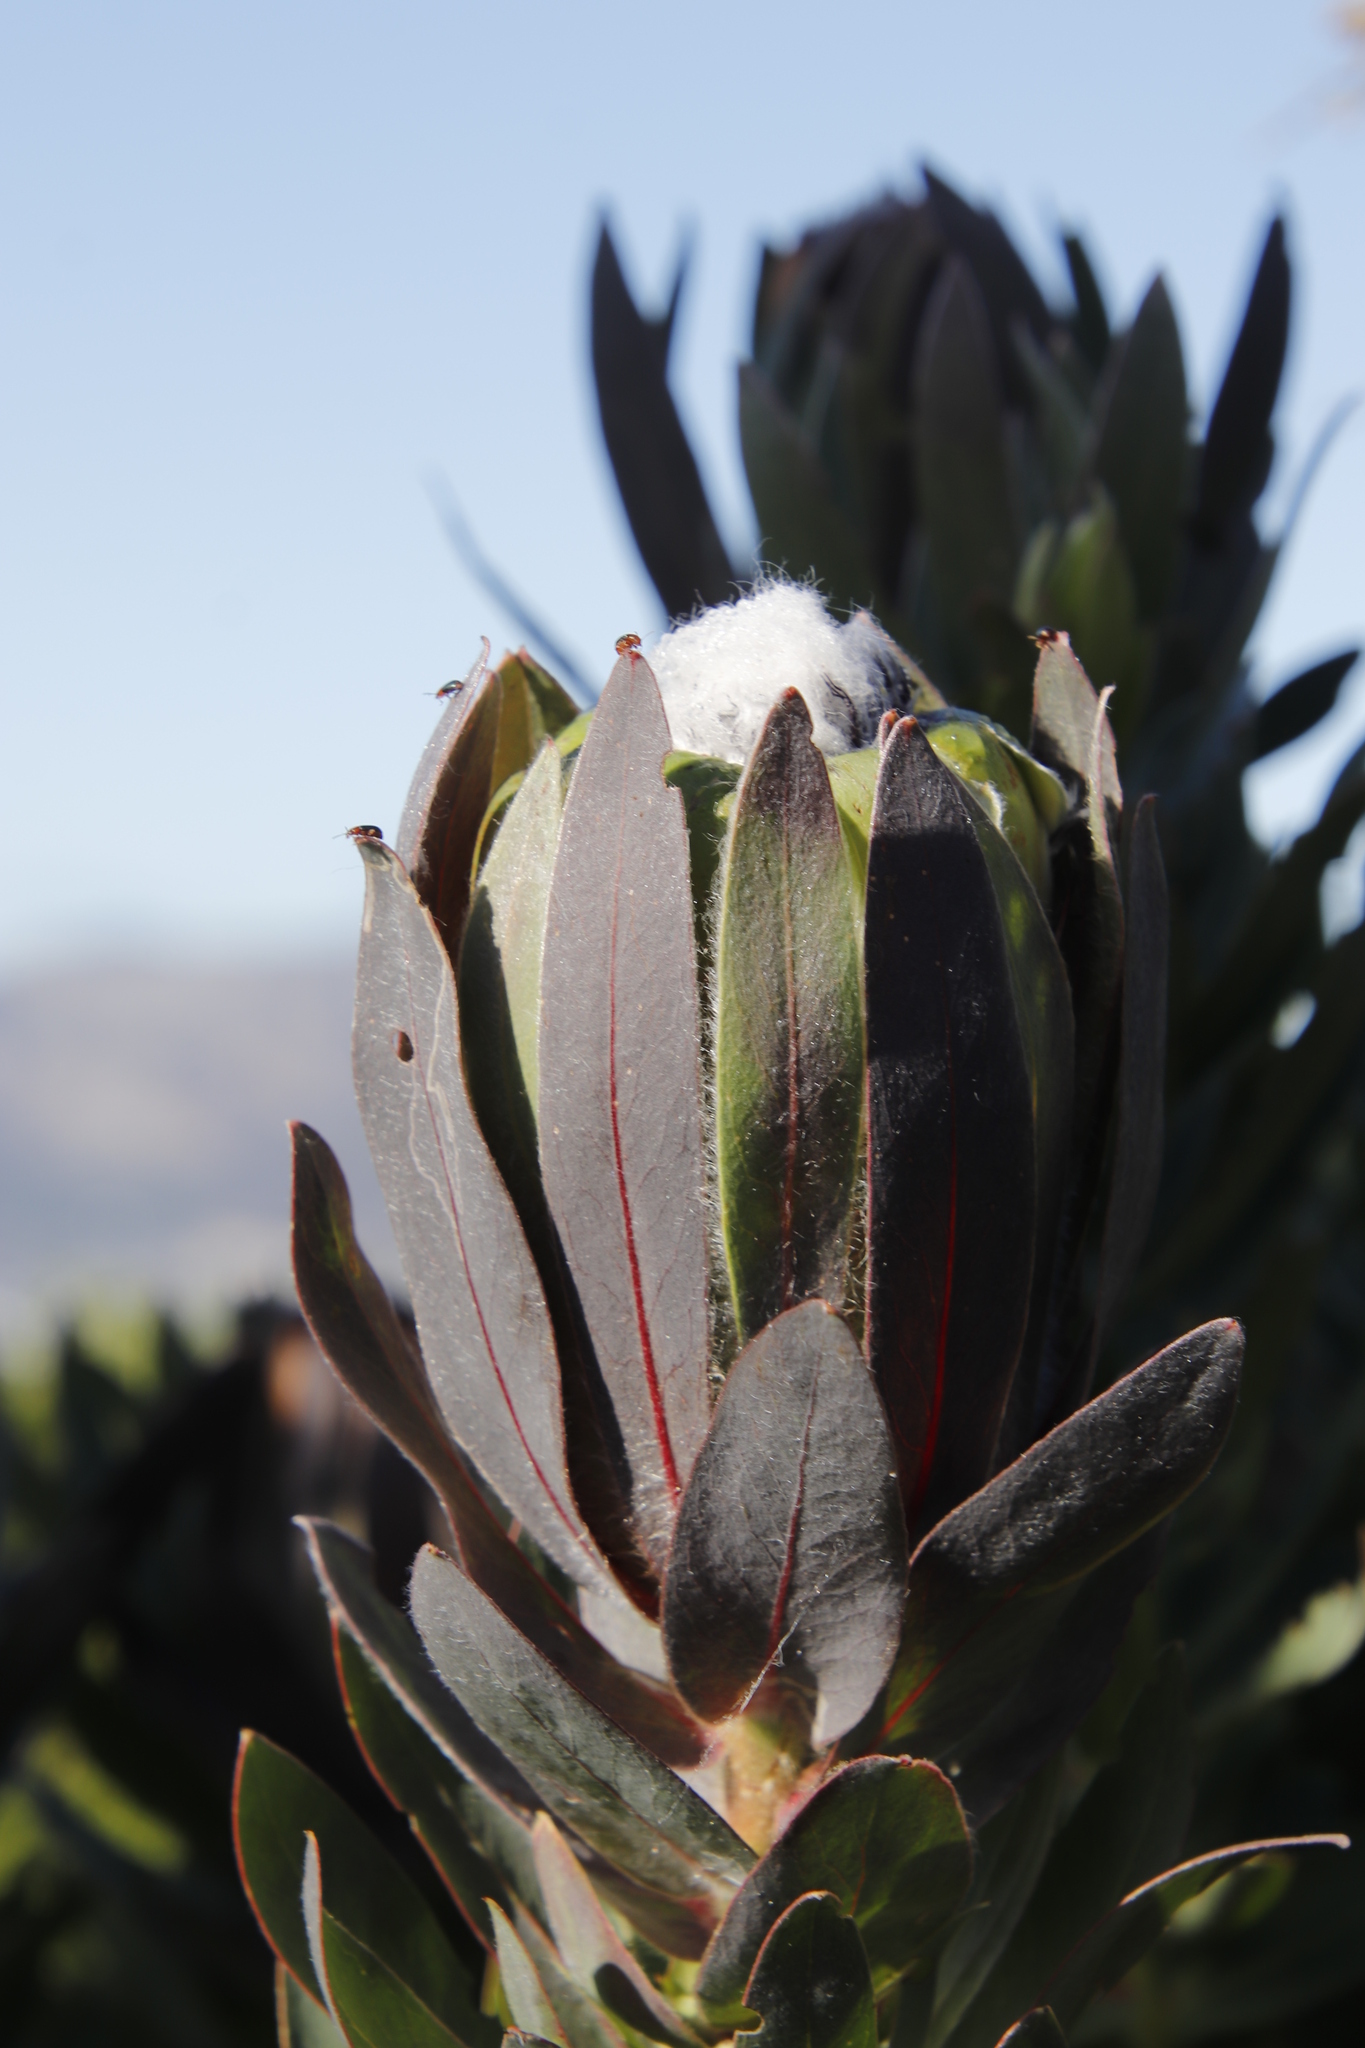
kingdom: Plantae
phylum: Tracheophyta
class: Magnoliopsida
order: Proteales
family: Proteaceae
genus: Protea
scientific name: Protea coronata
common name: Green sugarbush
